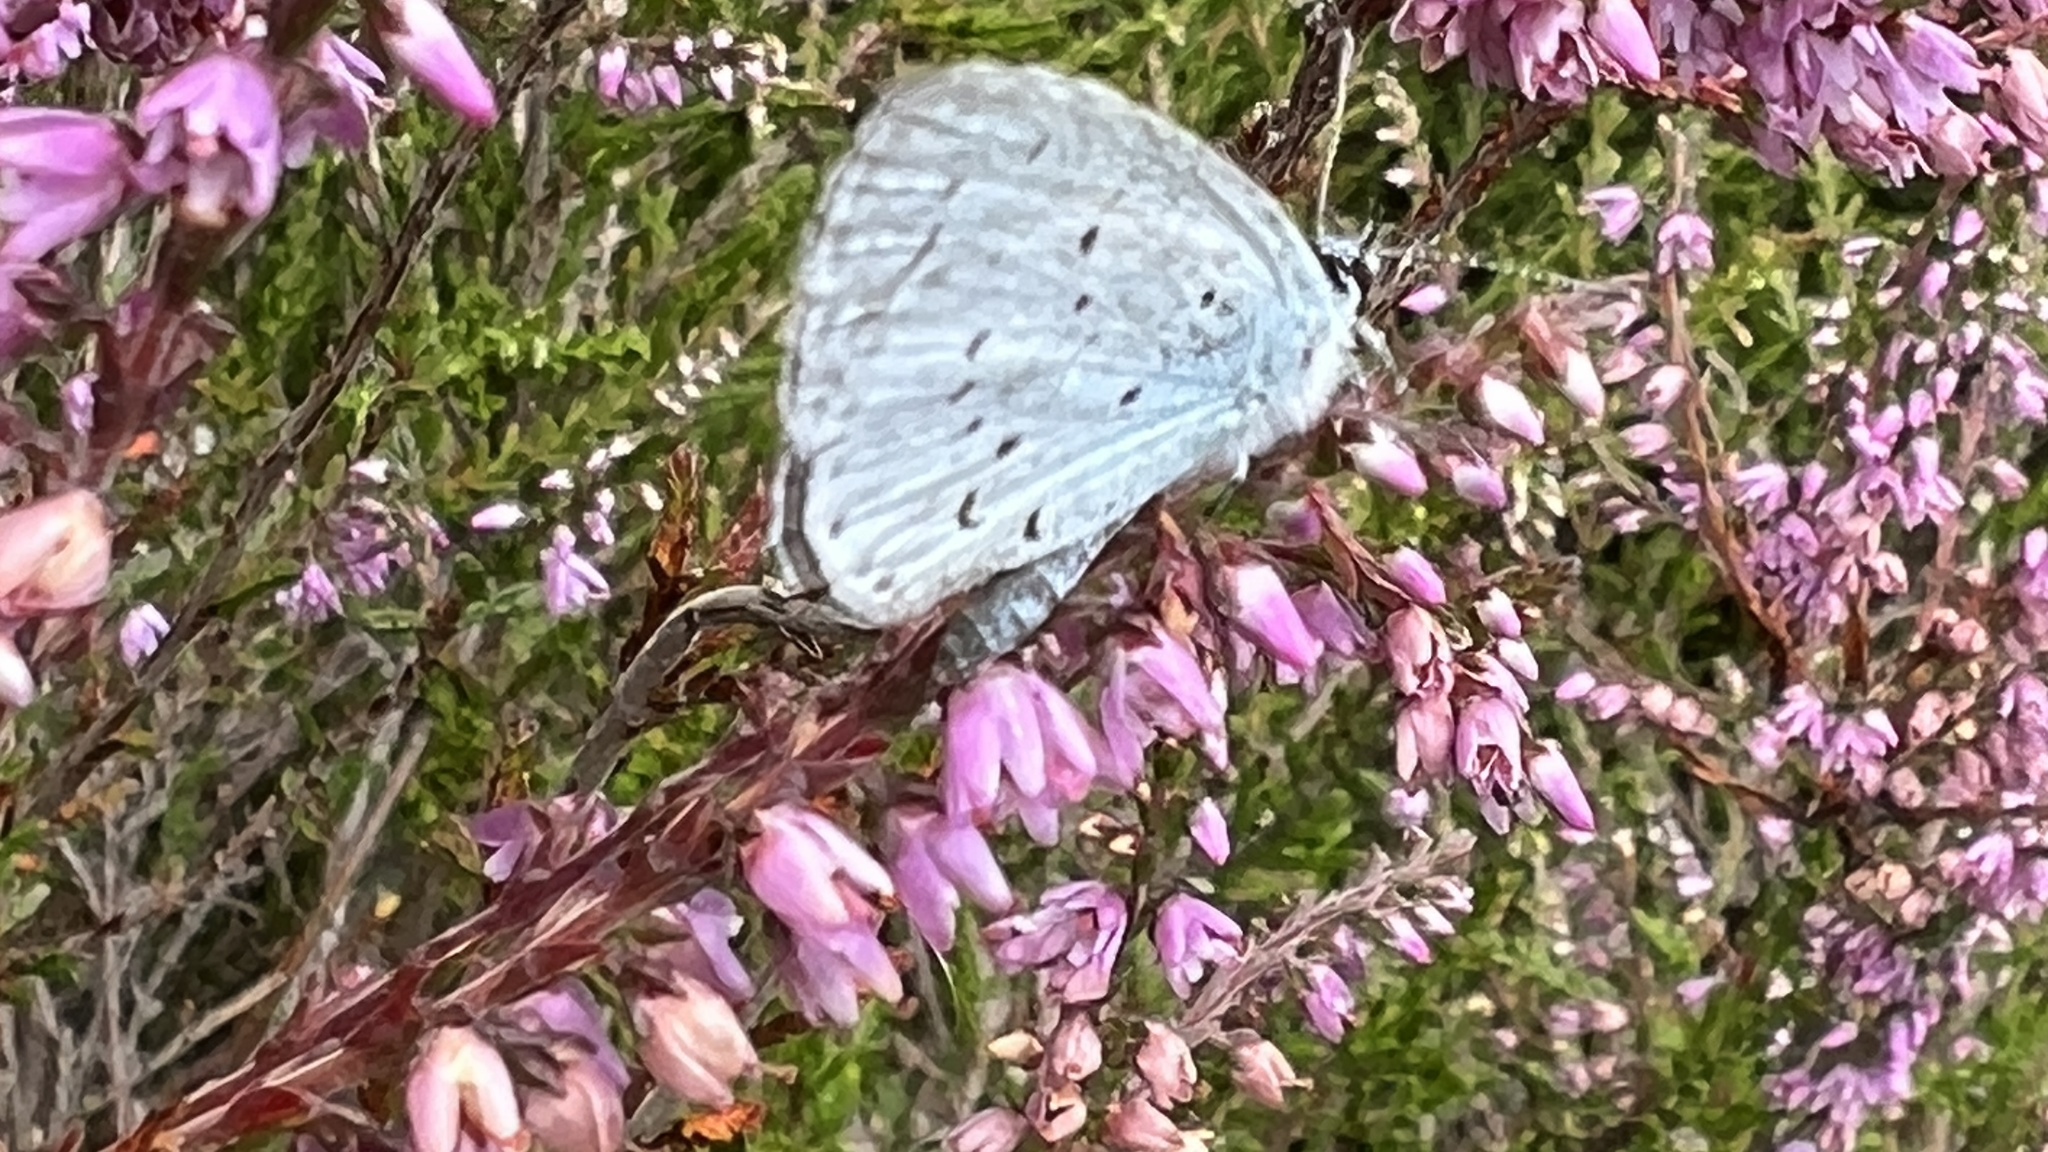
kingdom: Animalia
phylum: Arthropoda
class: Insecta
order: Lepidoptera
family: Lycaenidae
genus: Celastrina
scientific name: Celastrina argiolus
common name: Holly blue
